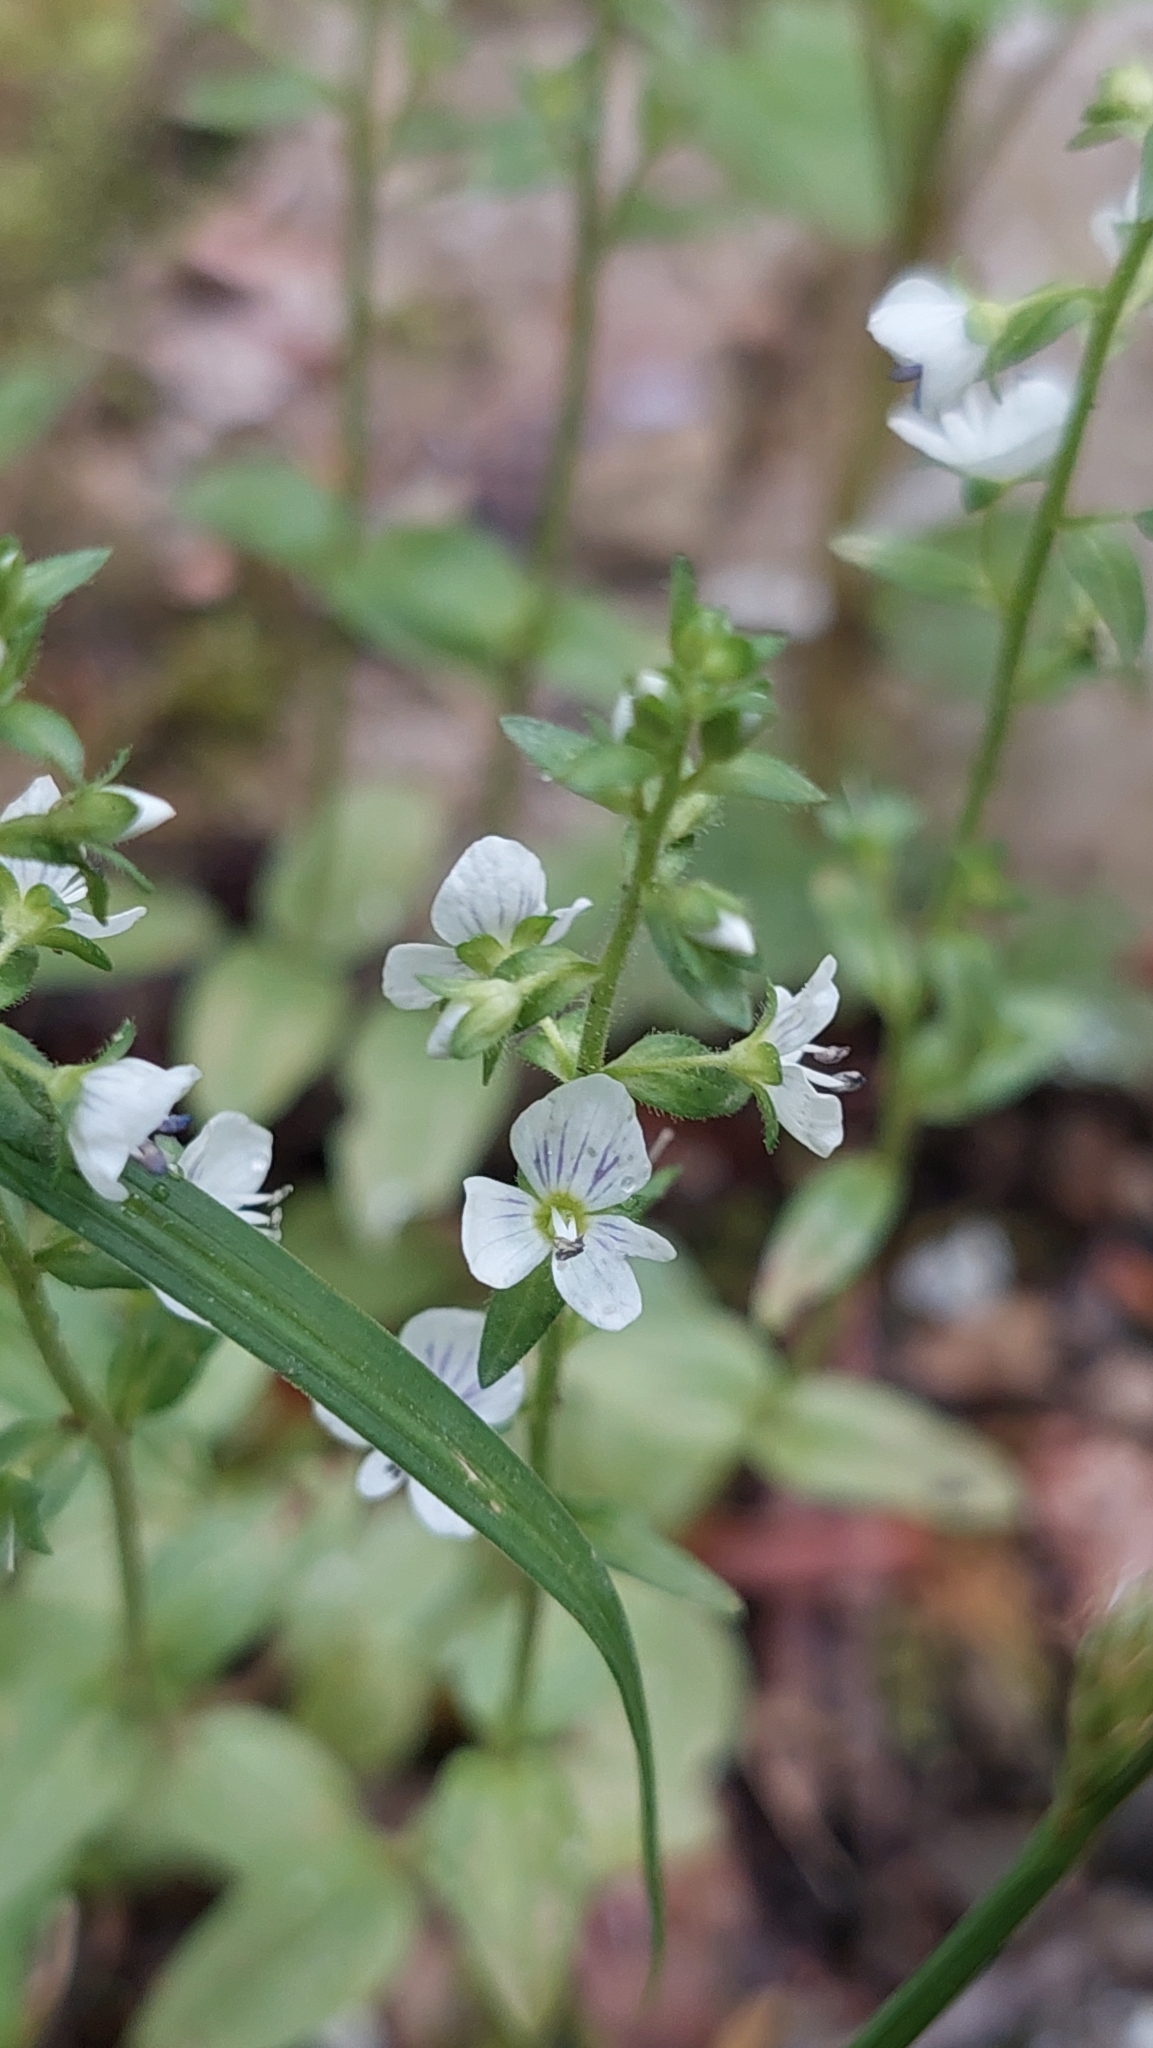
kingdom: Plantae
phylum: Tracheophyta
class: Magnoliopsida
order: Lamiales
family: Plantaginaceae
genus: Veronica
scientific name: Veronica serpyllifolia
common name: Thyme-leaved speedwell
